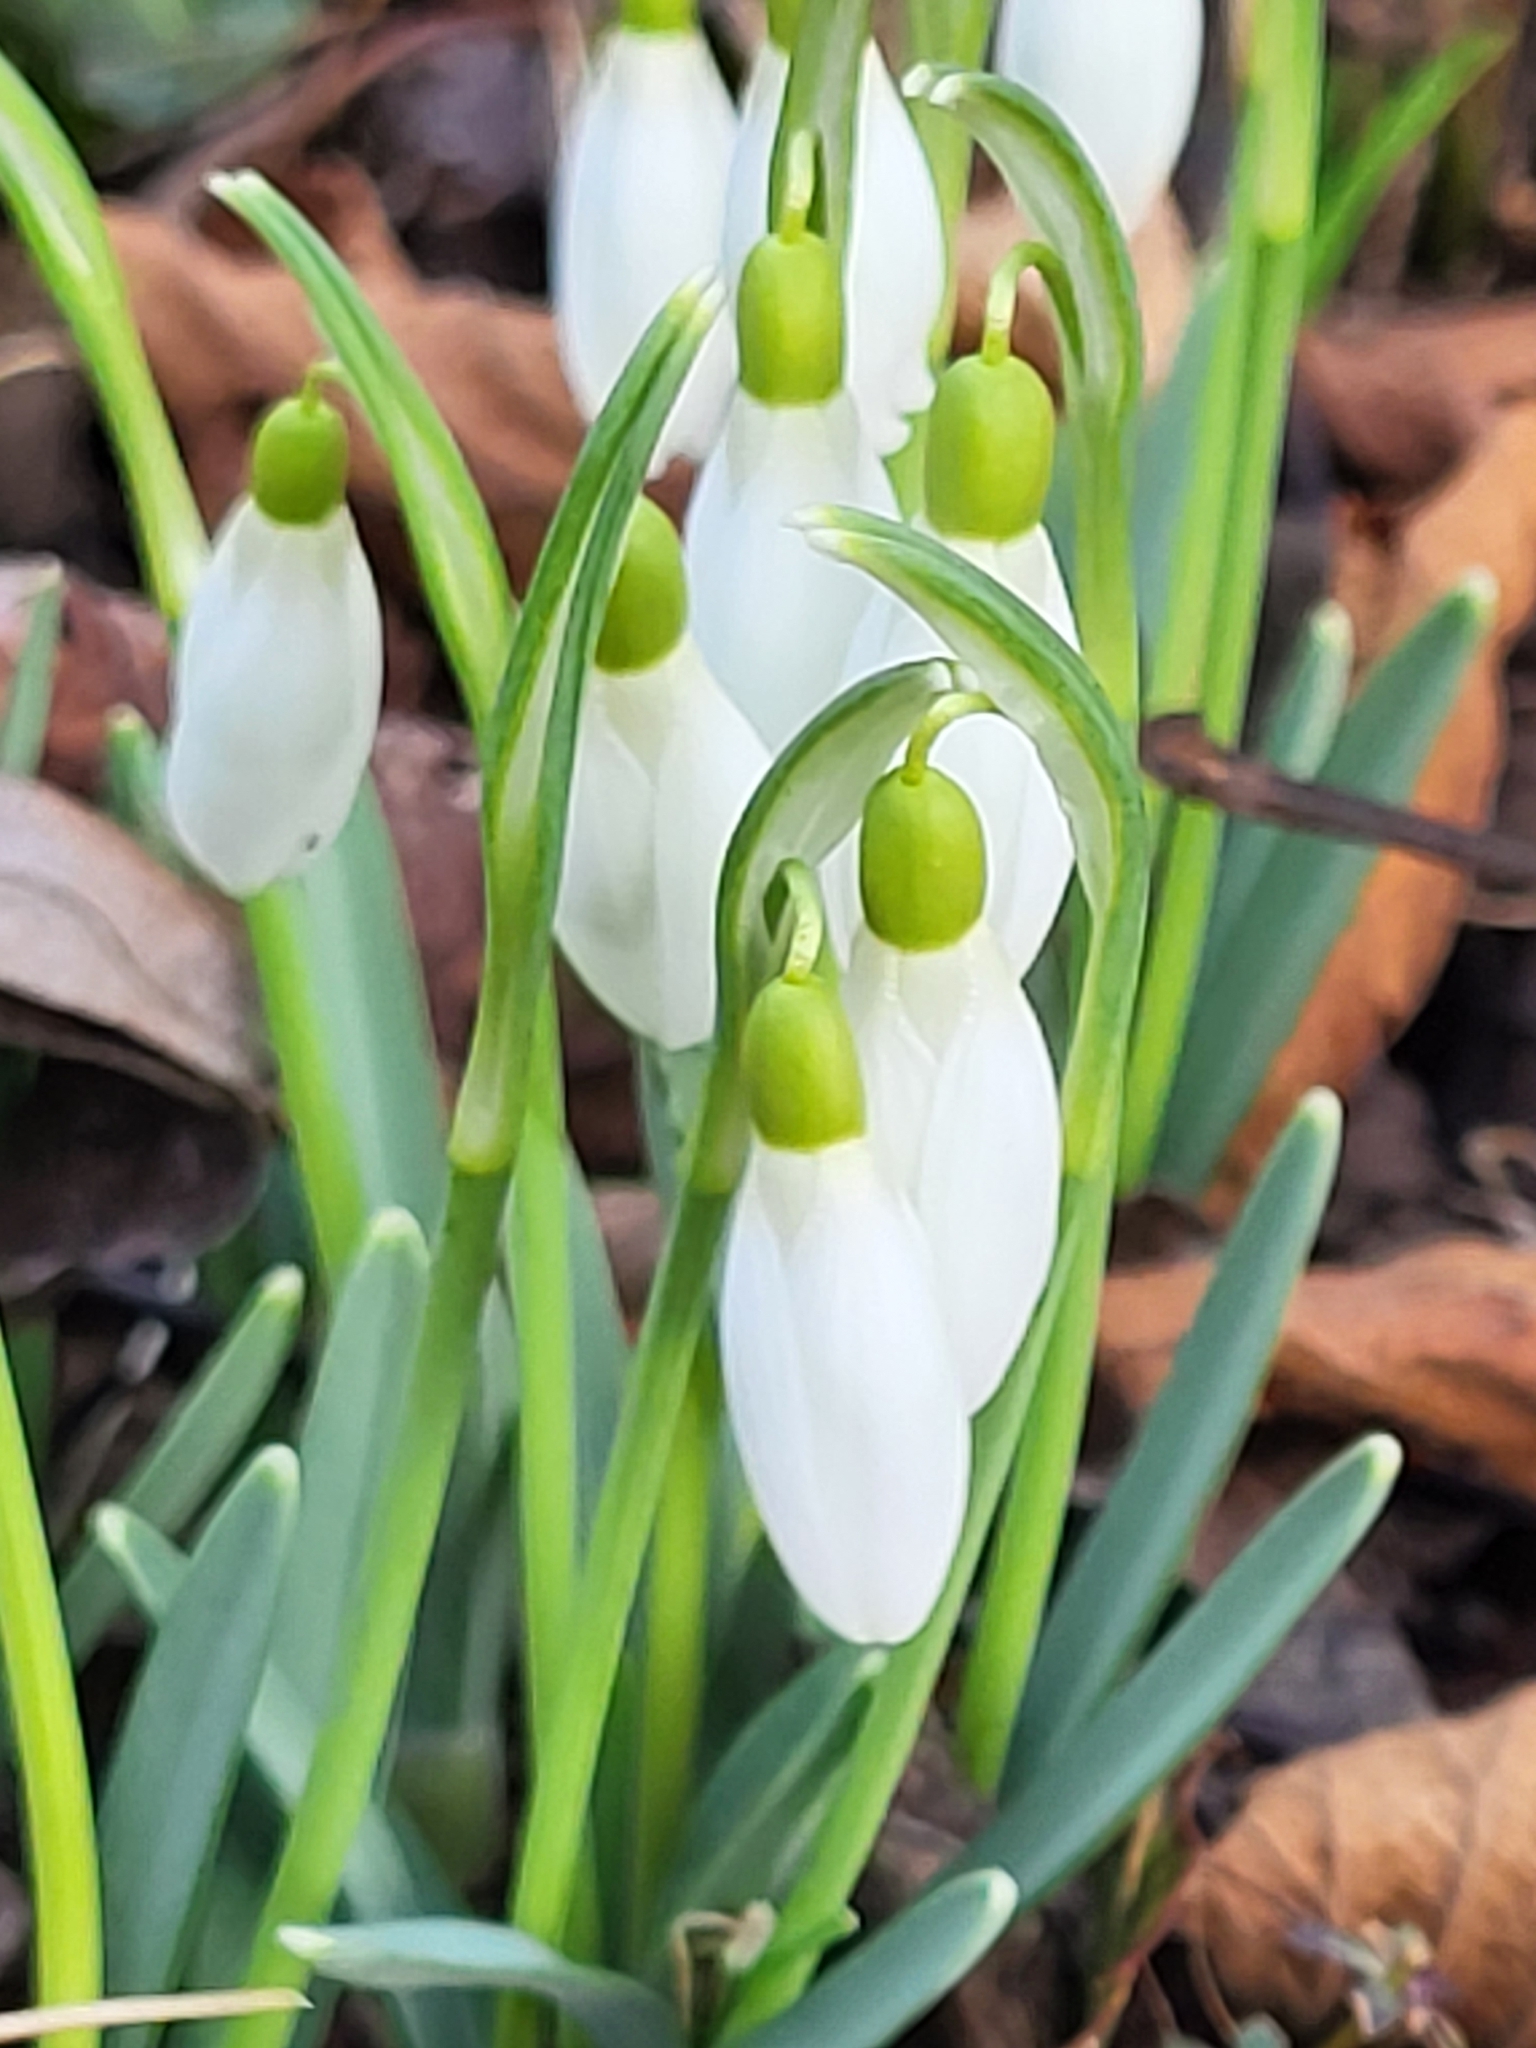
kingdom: Plantae
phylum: Tracheophyta
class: Liliopsida
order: Asparagales
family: Amaryllidaceae
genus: Galanthus
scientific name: Galanthus nivalis
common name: Snowdrop
